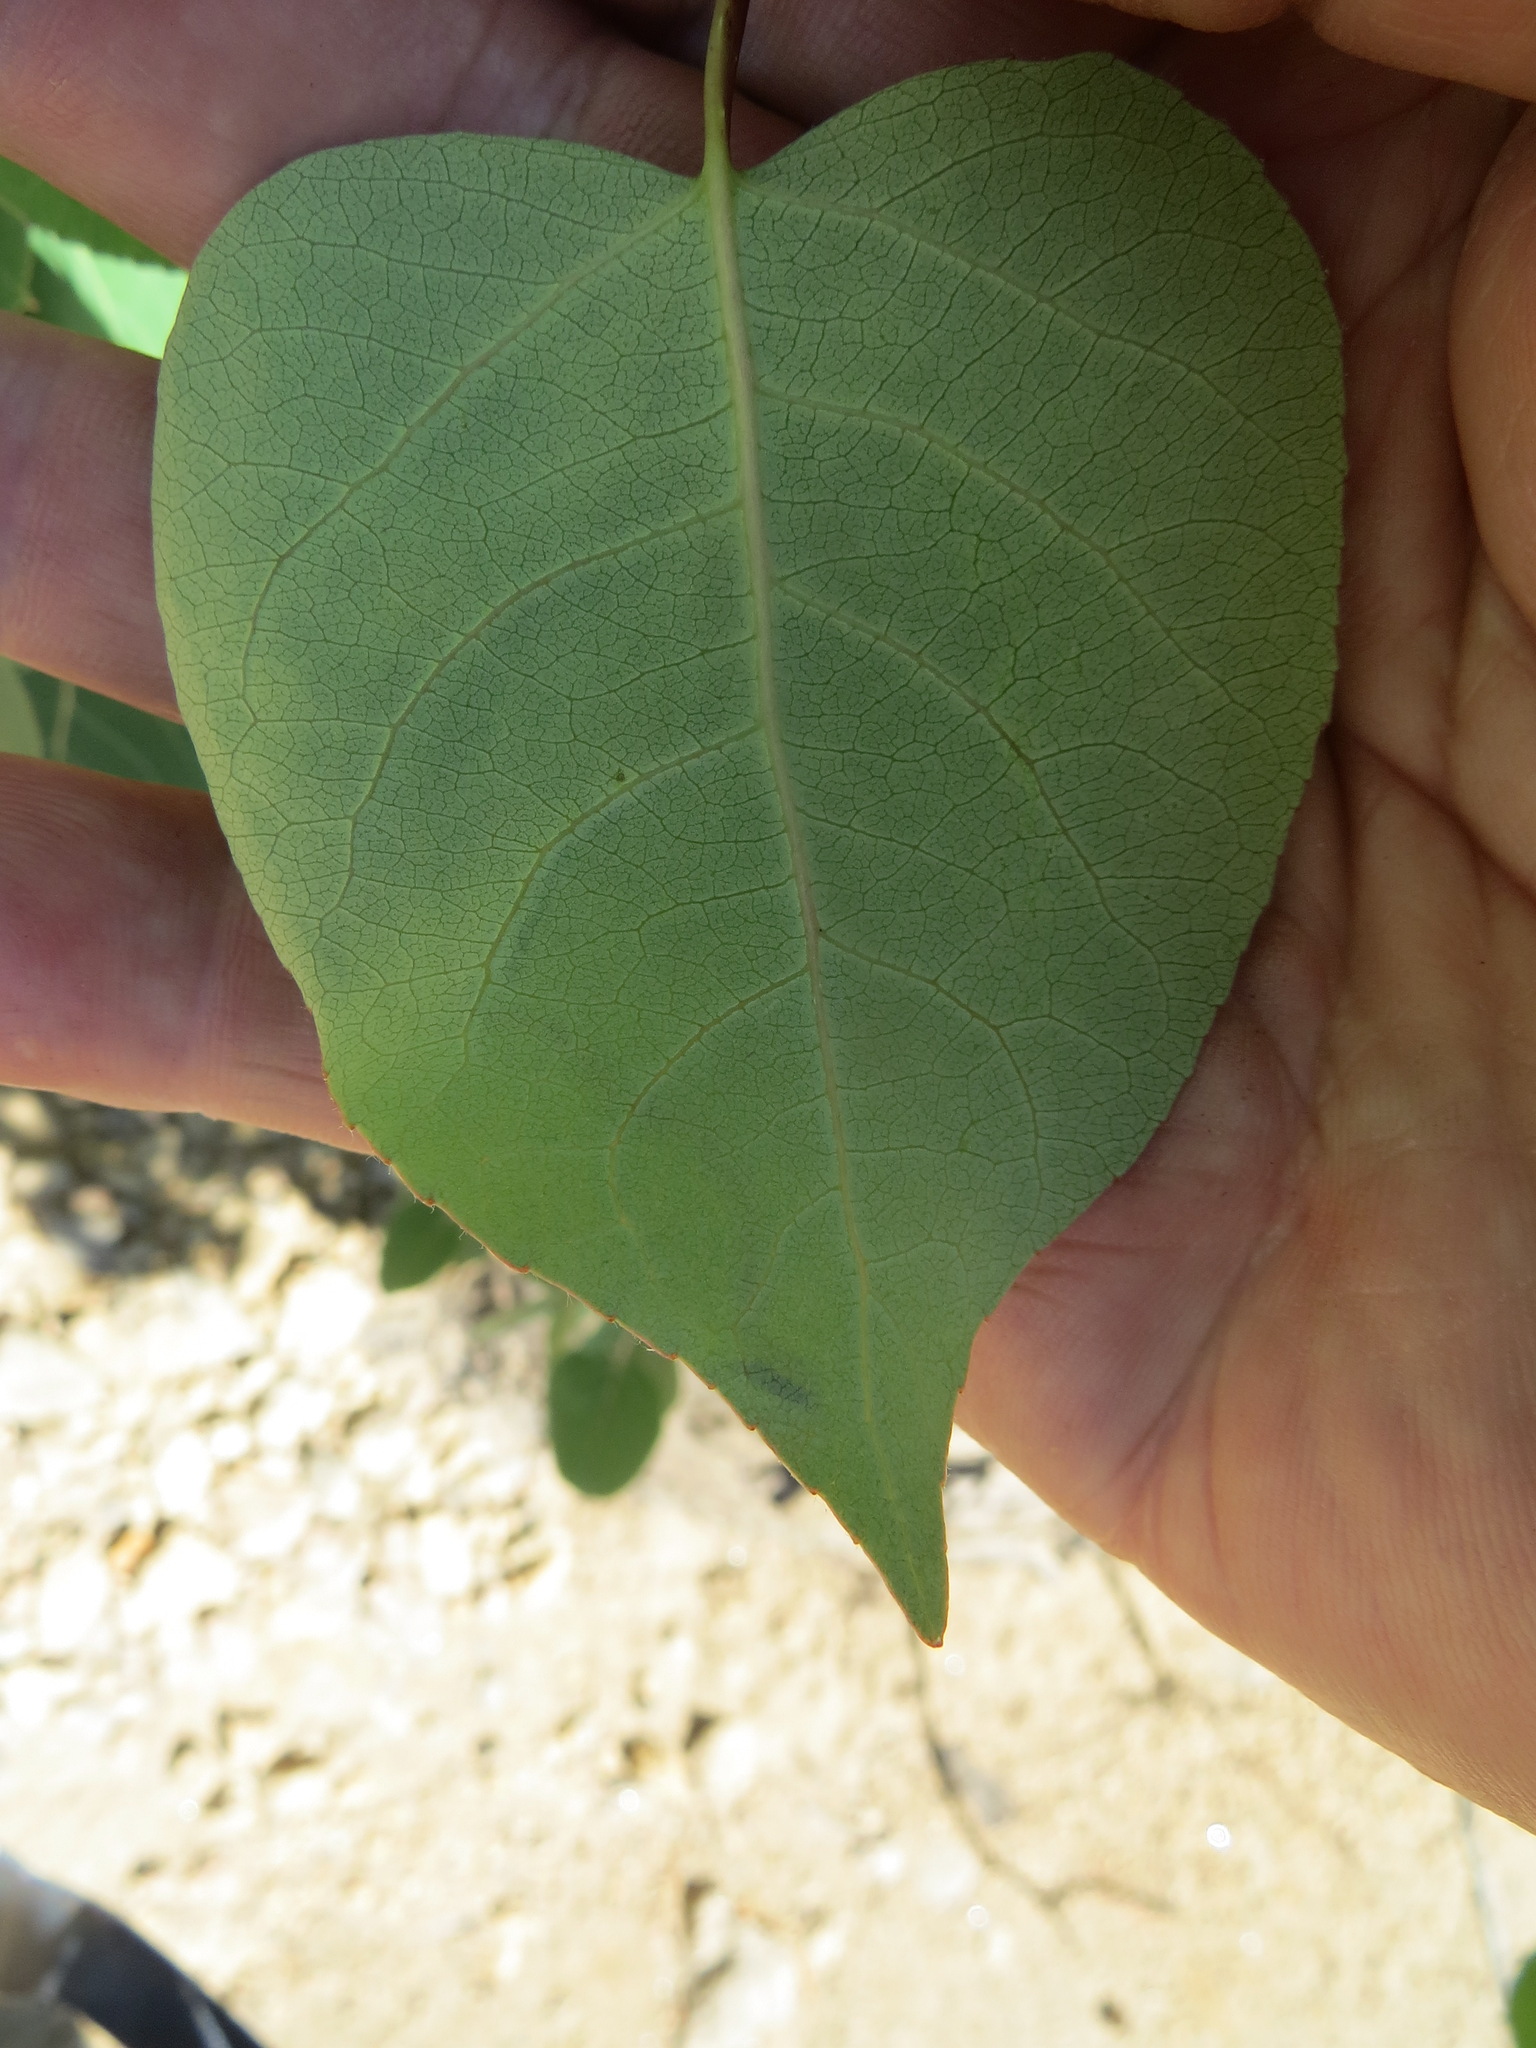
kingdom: Animalia
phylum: Arthropoda
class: Insecta
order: Lepidoptera
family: Gracillariidae
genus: Phyllocnistis
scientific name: Phyllocnistis populiella
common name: Aspen serpentine leafminer moth
